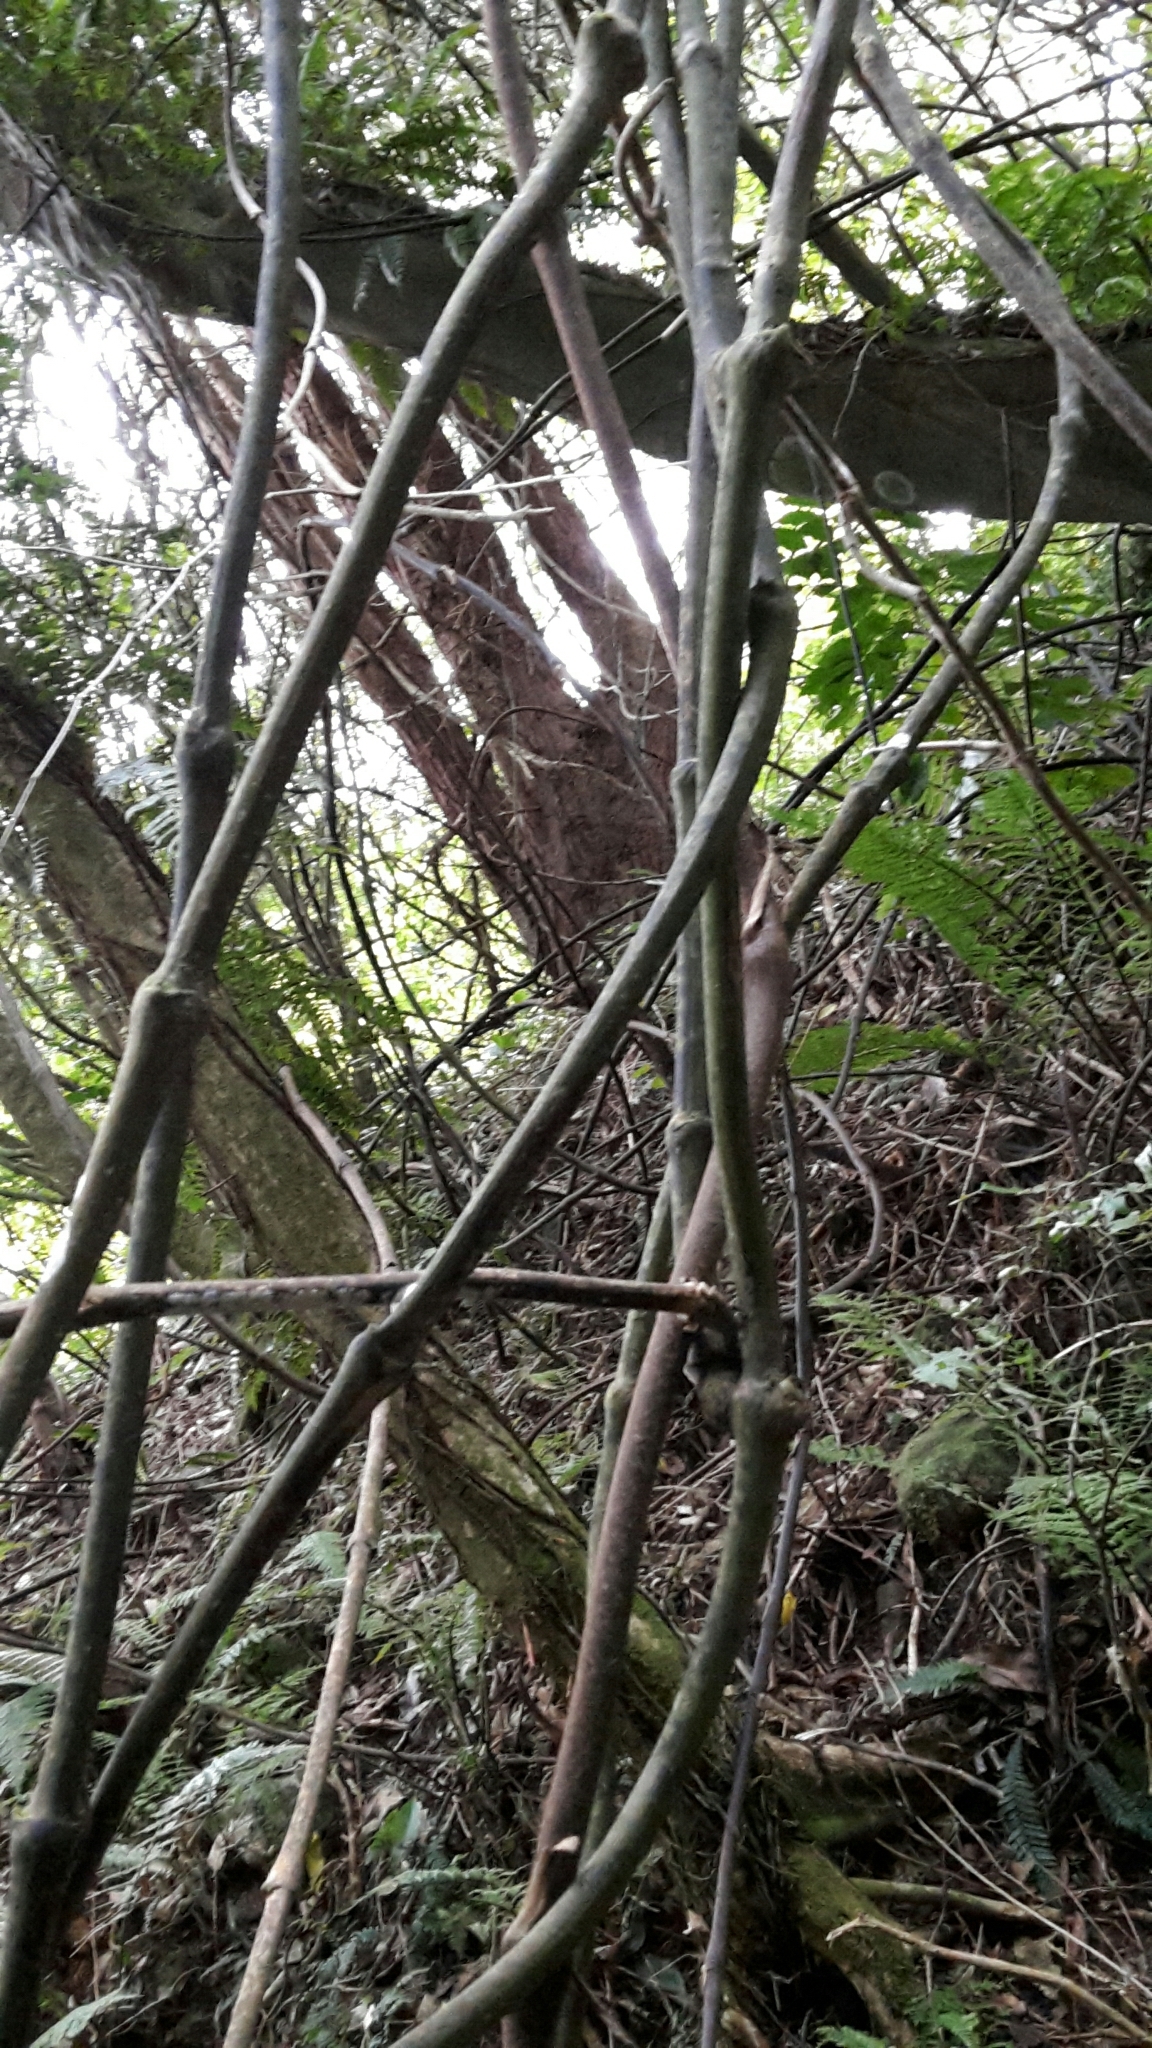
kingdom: Plantae
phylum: Tracheophyta
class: Liliopsida
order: Liliales
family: Ripogonaceae
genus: Ripogonum
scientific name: Ripogonum scandens
